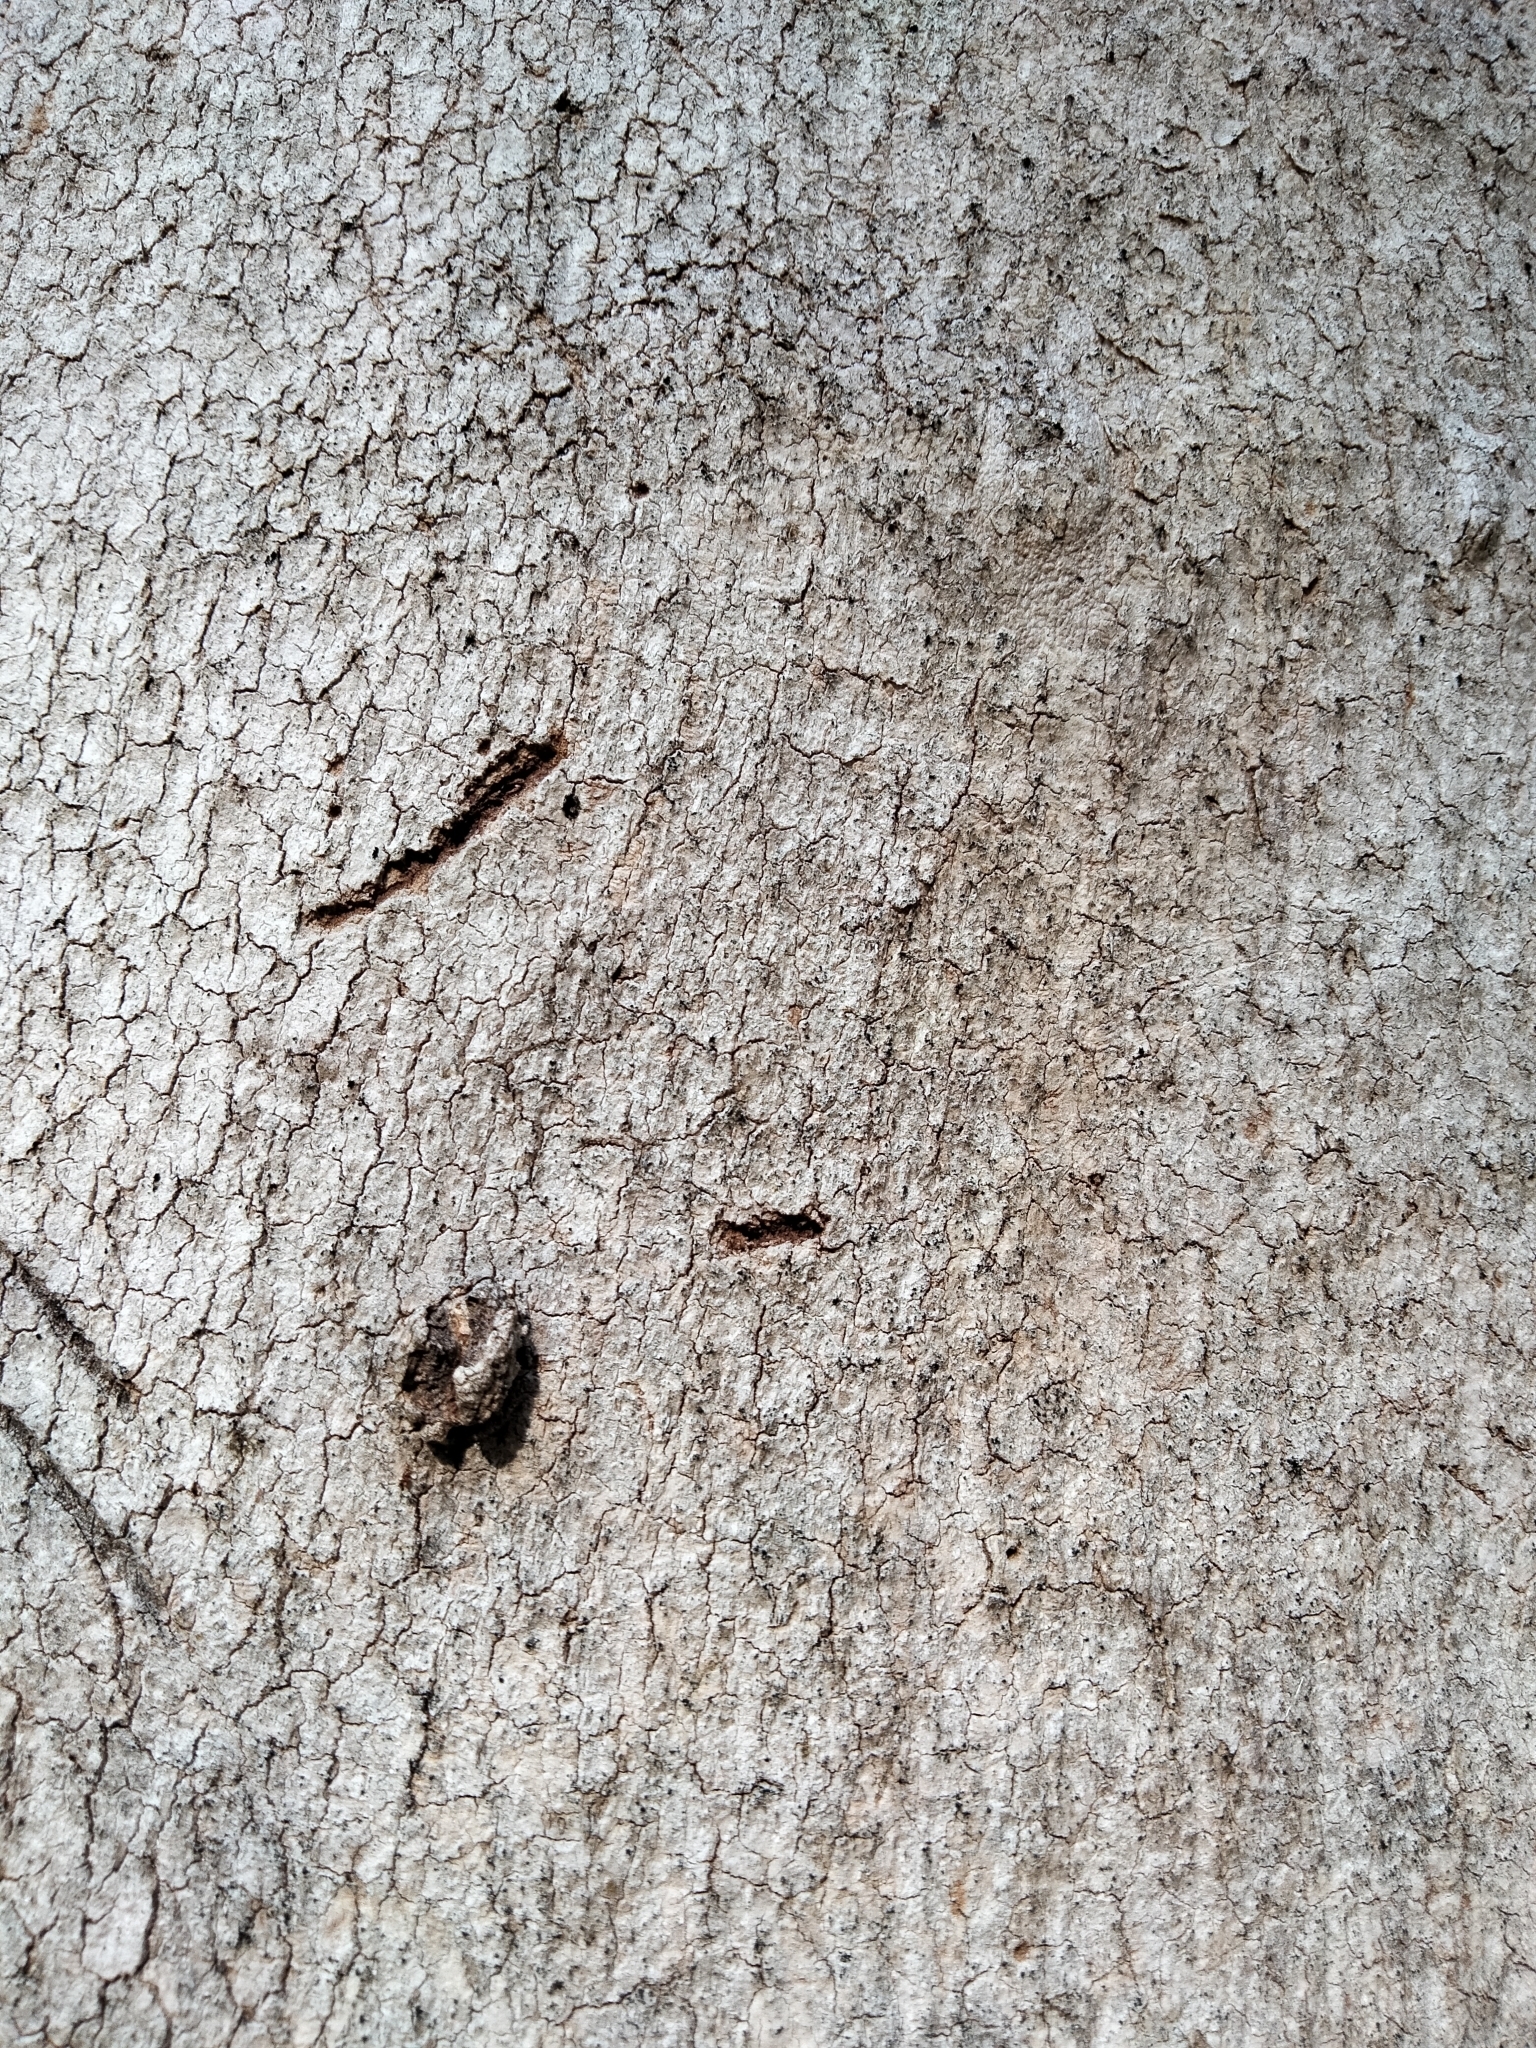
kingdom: Animalia
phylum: Chordata
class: Mammalia
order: Diprotodontia
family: Phascolarctidae
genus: Phascolarctos
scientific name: Phascolarctos cinereus
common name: Koala
